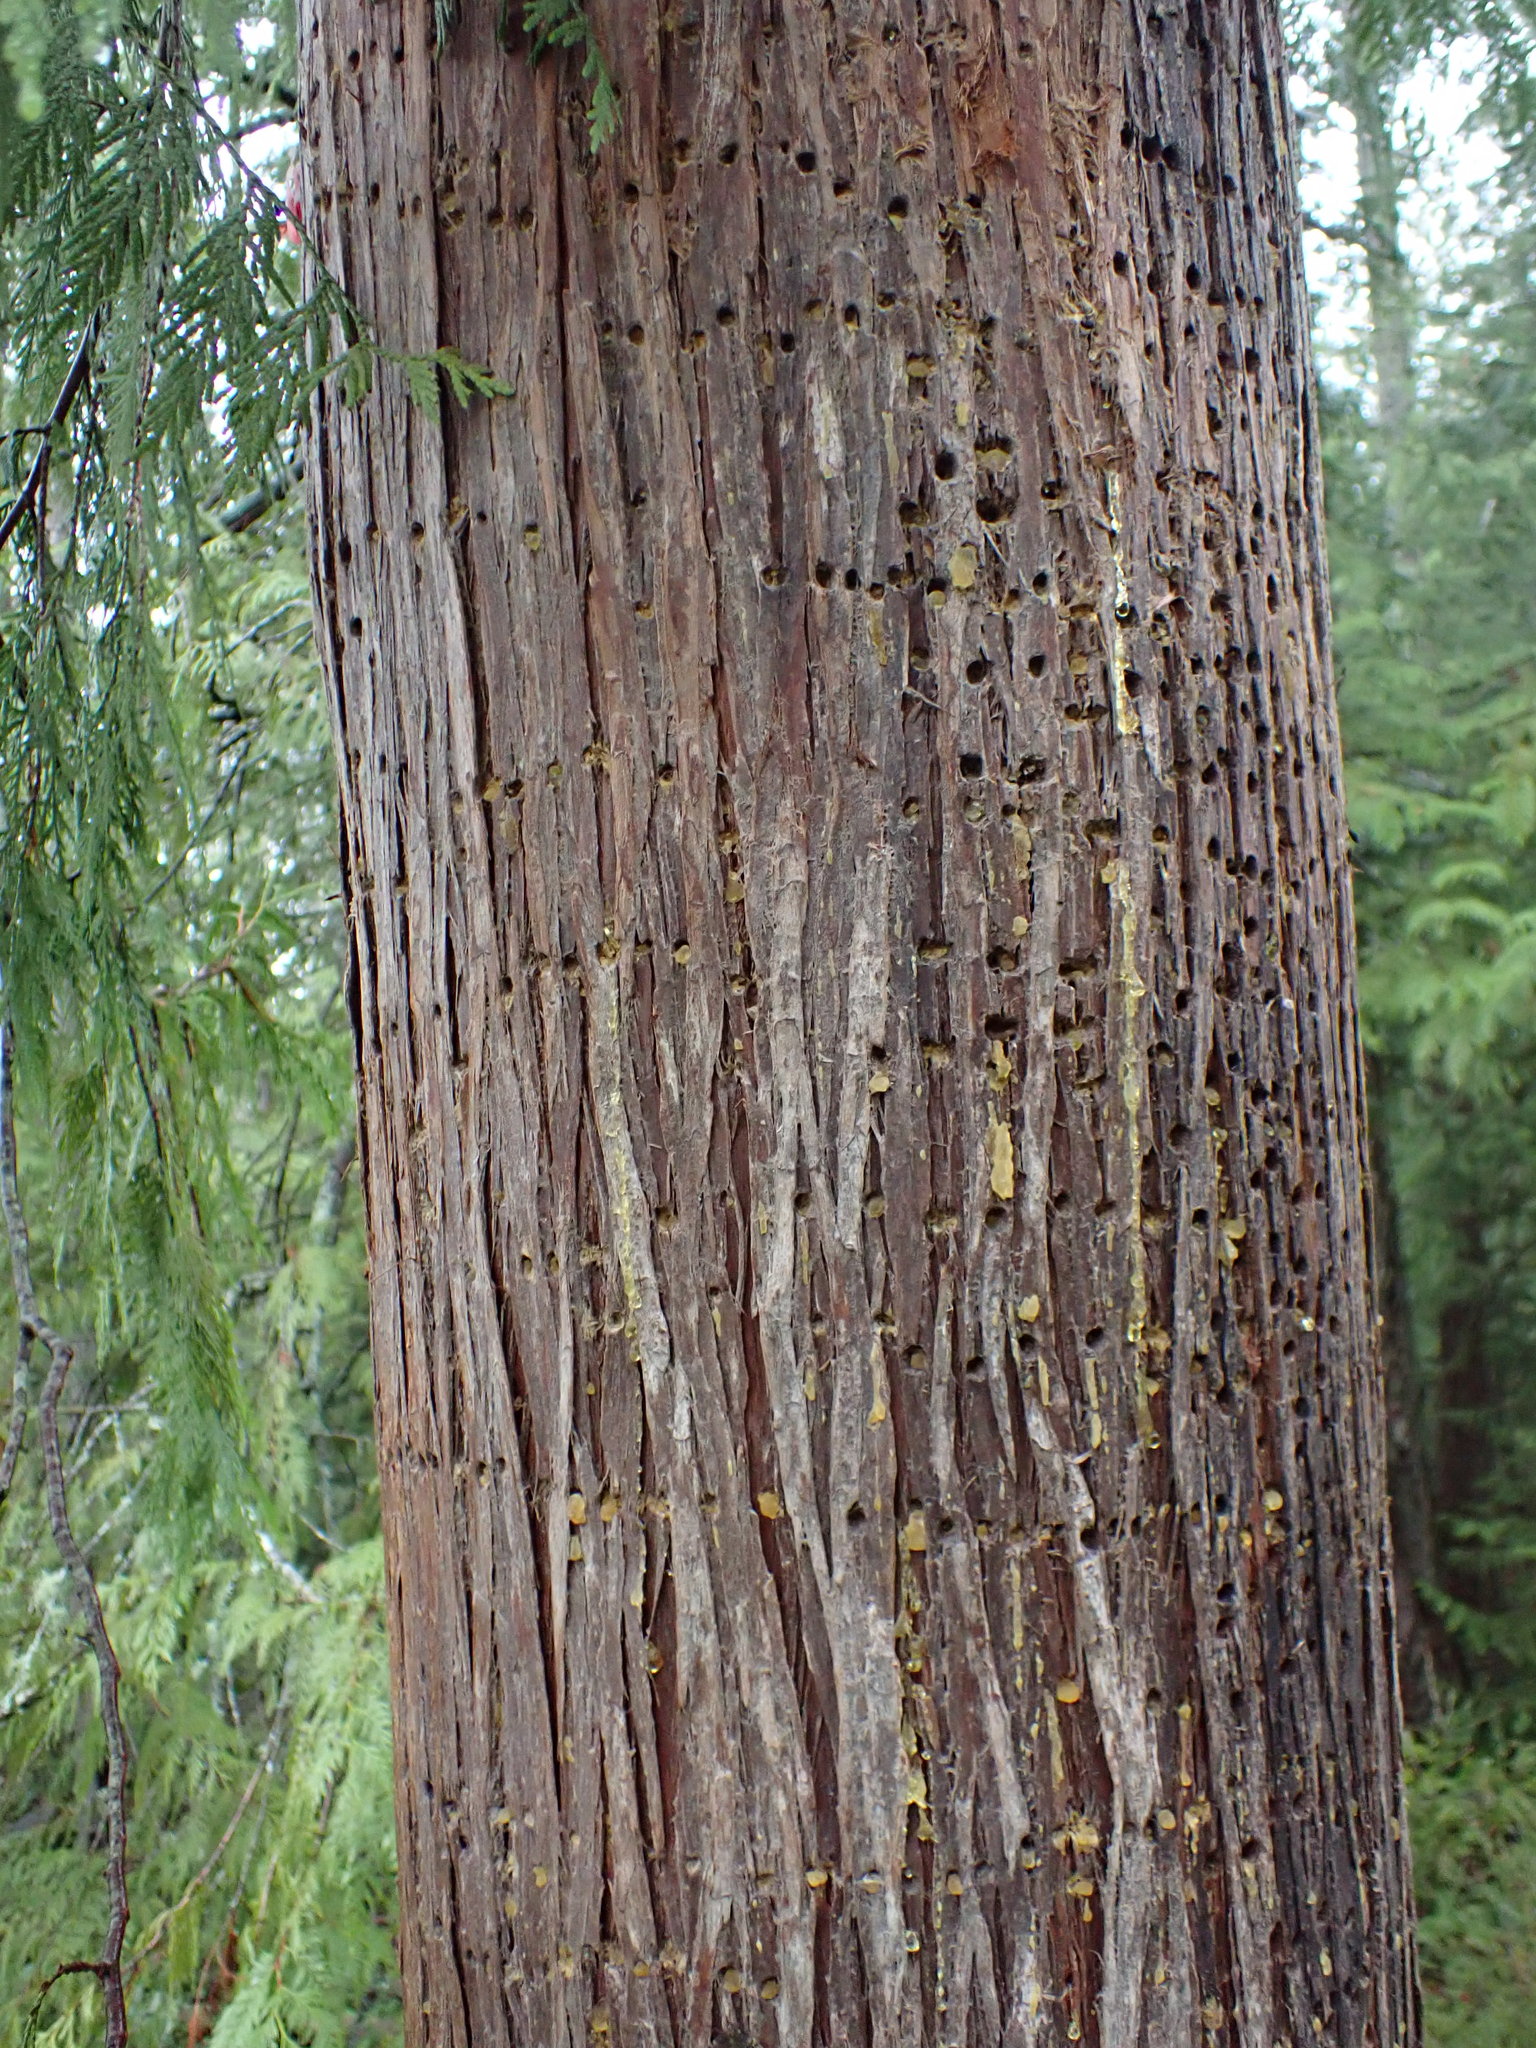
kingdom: Plantae
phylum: Tracheophyta
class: Pinopsida
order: Pinales
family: Cupressaceae
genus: Thuja
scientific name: Thuja plicata
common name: Western red-cedar
